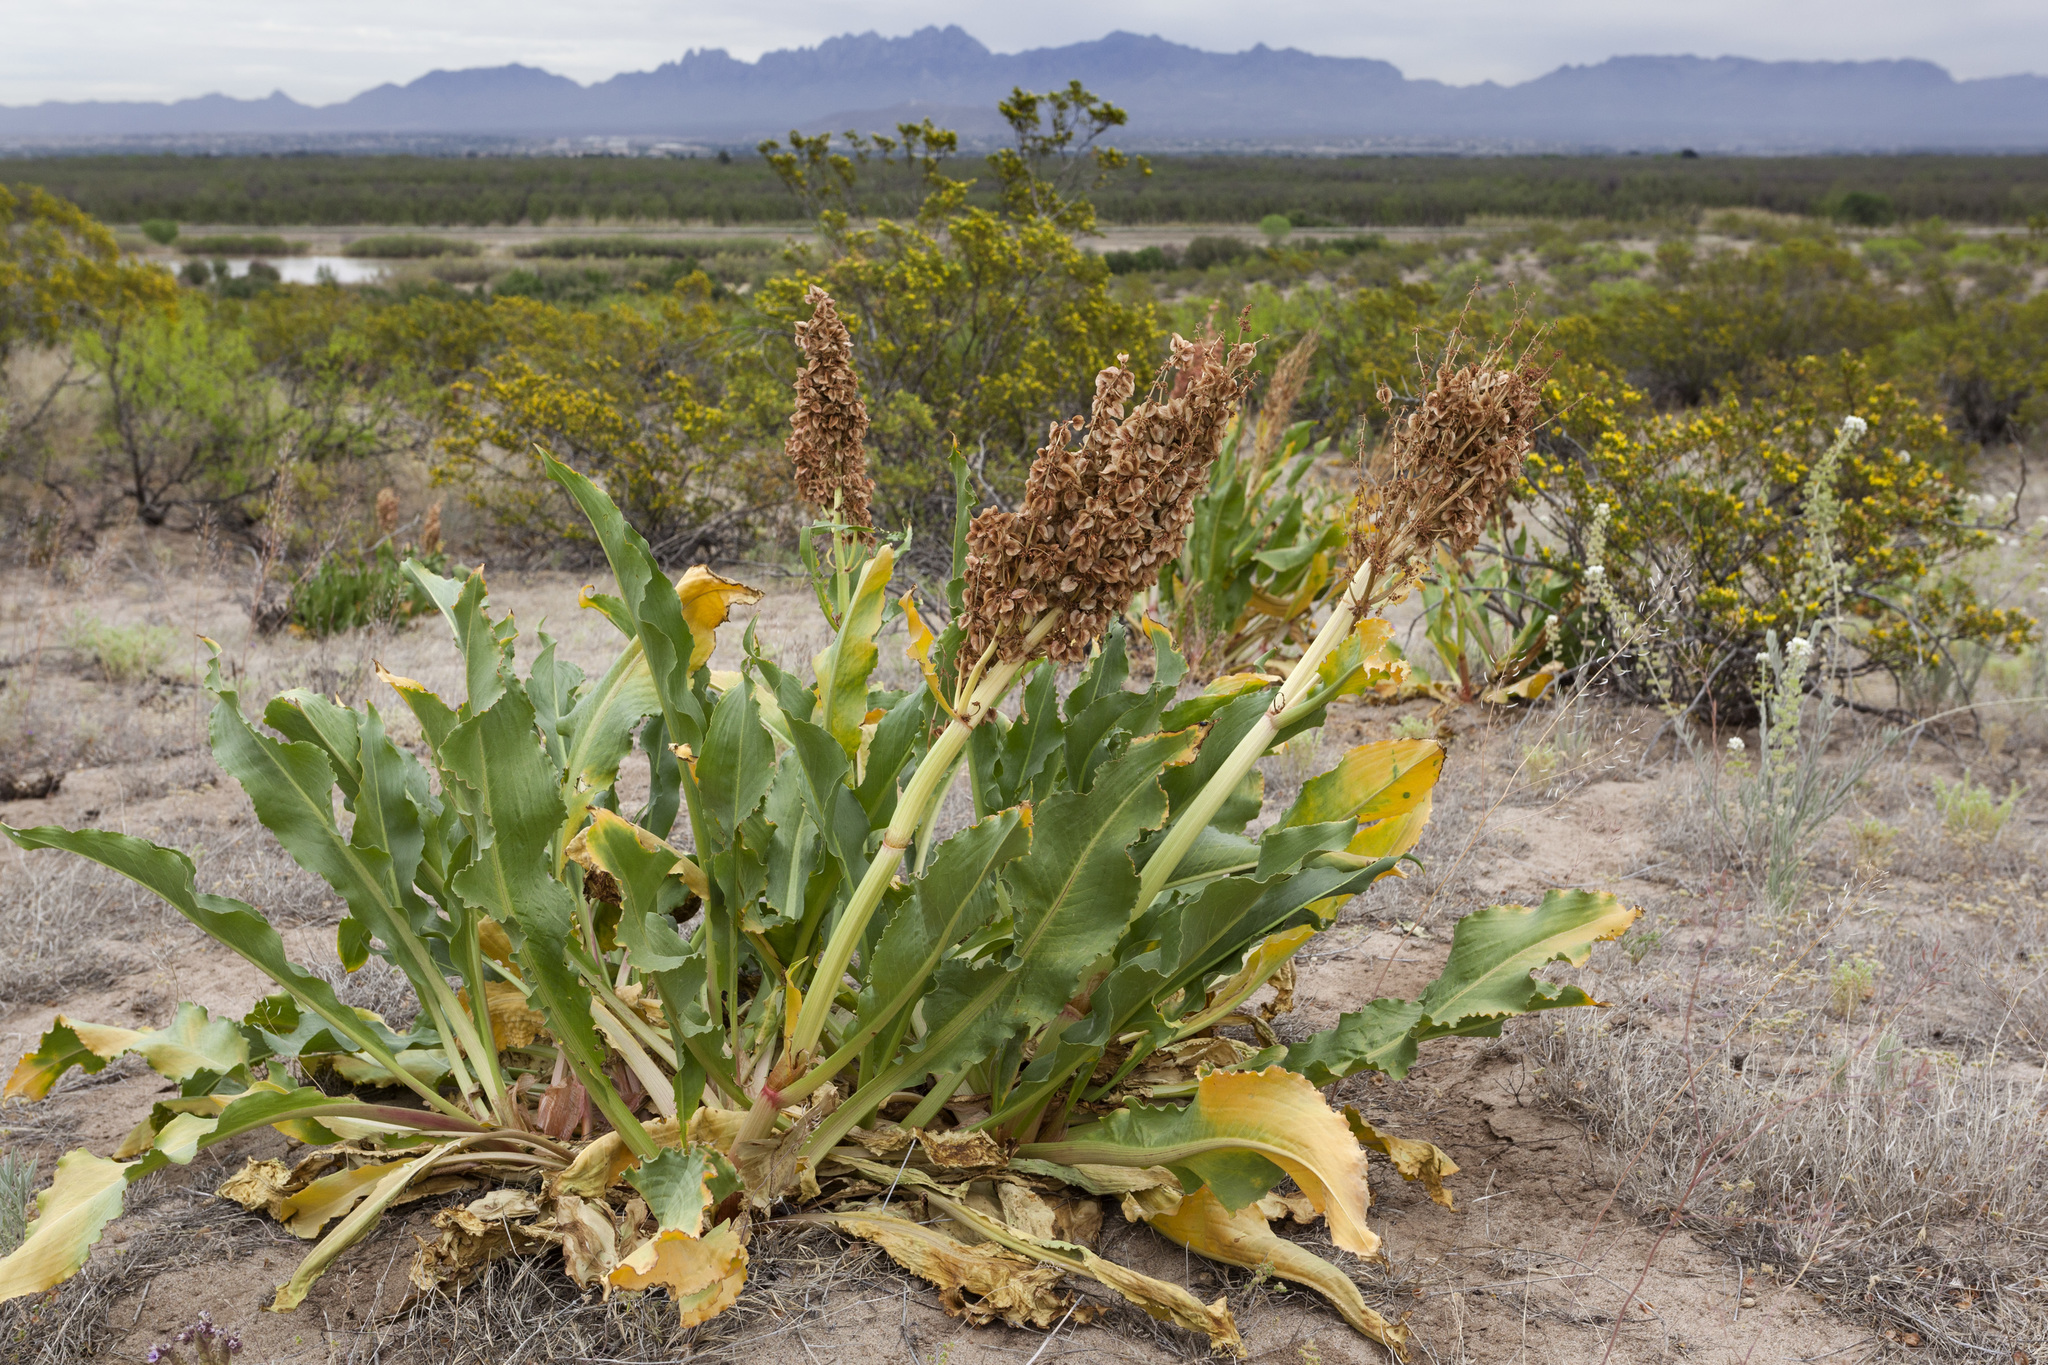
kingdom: Plantae
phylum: Tracheophyta
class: Magnoliopsida
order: Caryophyllales
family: Polygonaceae
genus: Rumex
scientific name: Rumex hymenosepalus
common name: Ganagra
